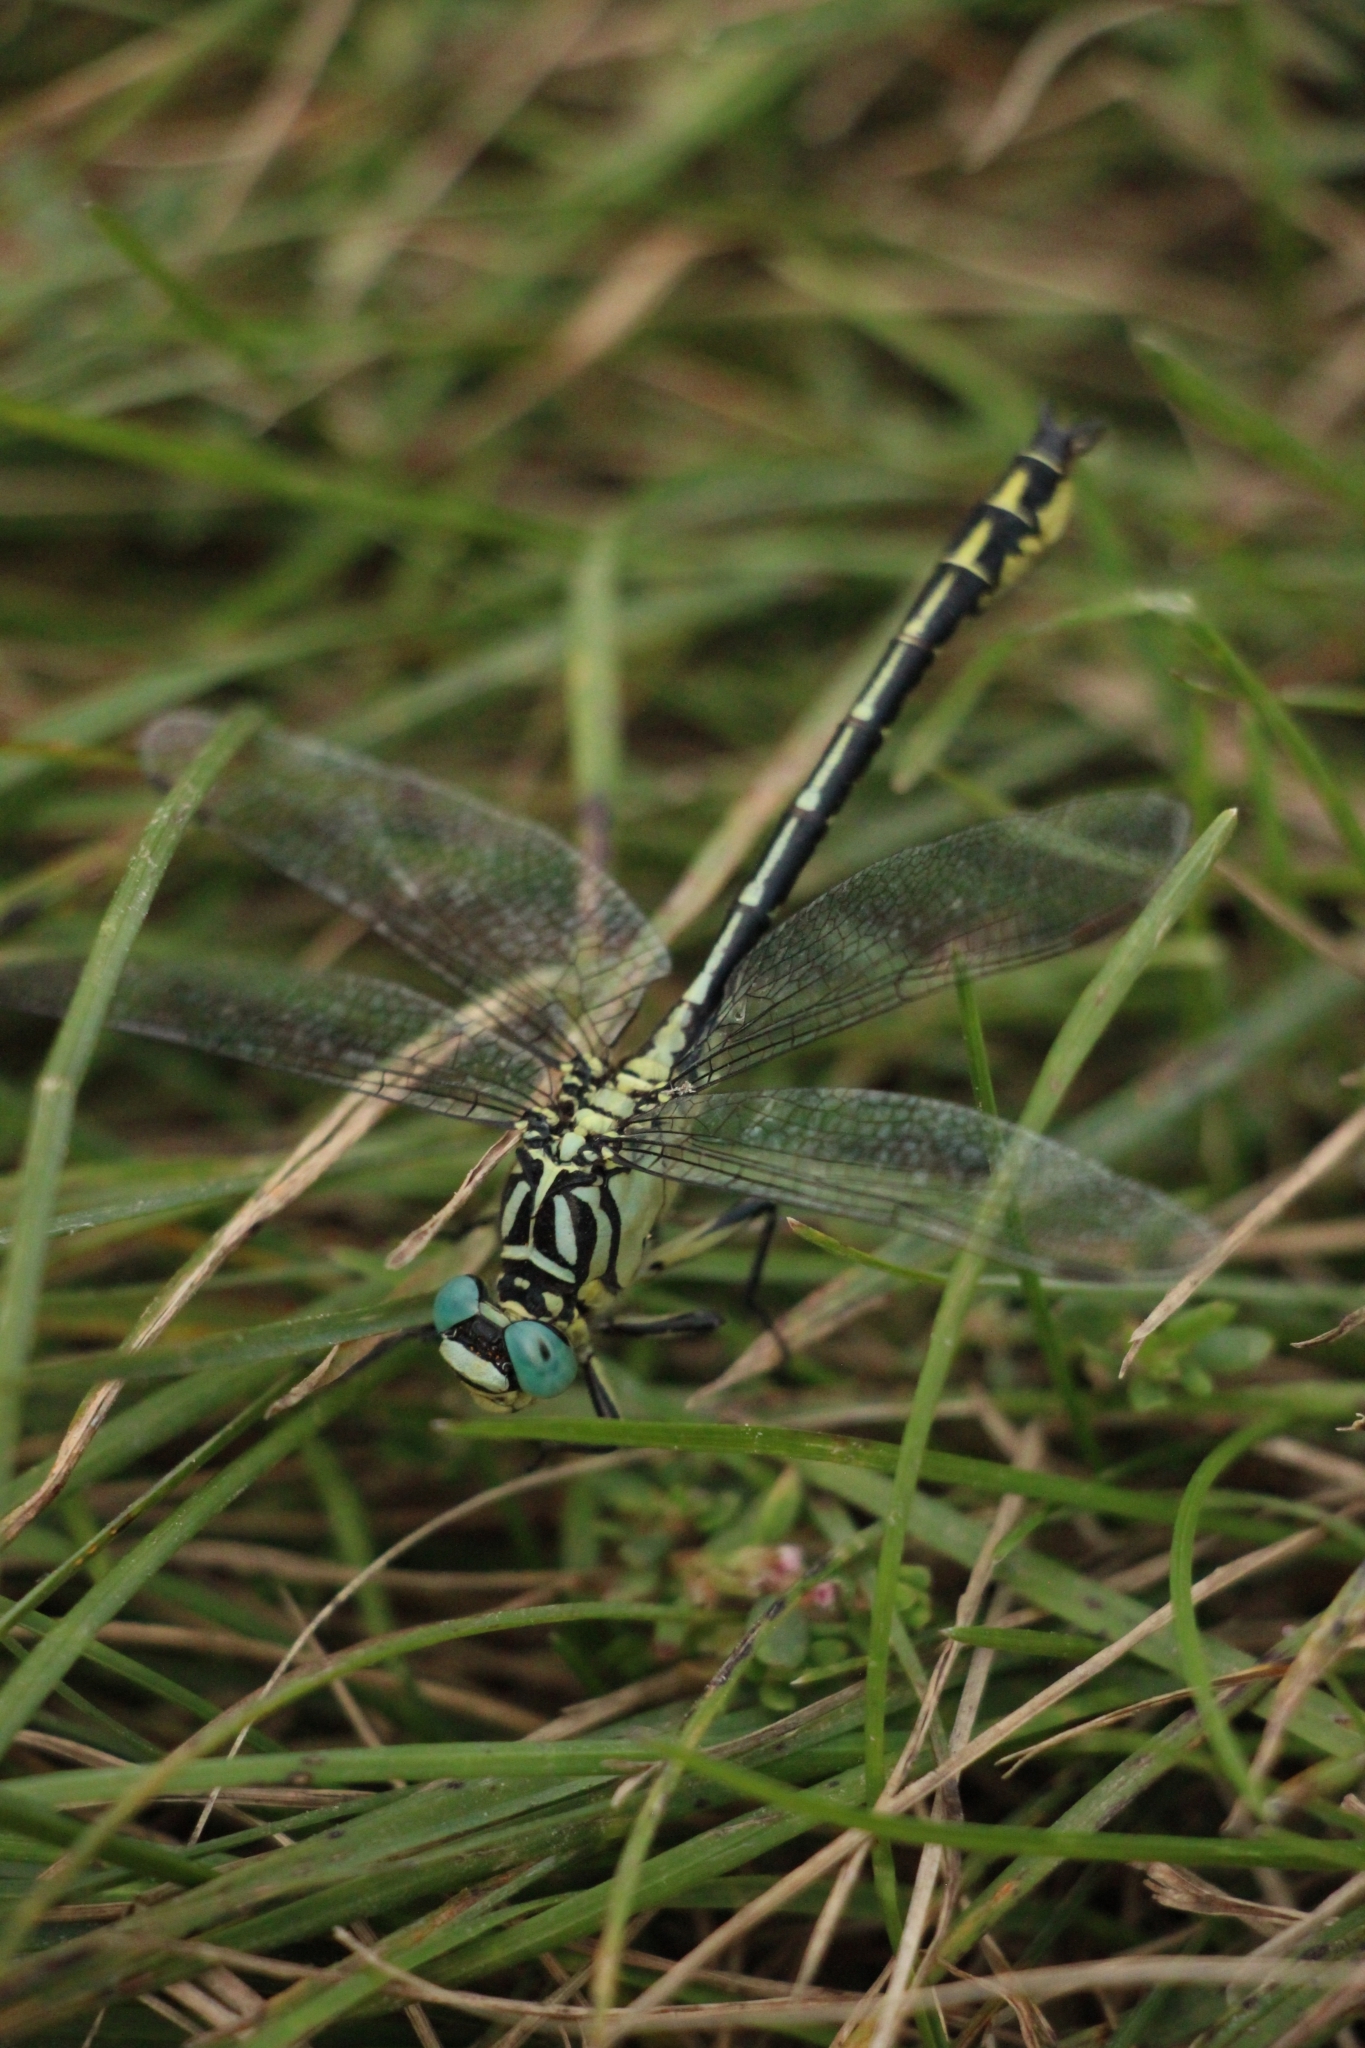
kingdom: Animalia
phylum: Arthropoda
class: Insecta
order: Odonata
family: Gomphidae
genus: Stylurus
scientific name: Stylurus flavipes
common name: River clubtail
